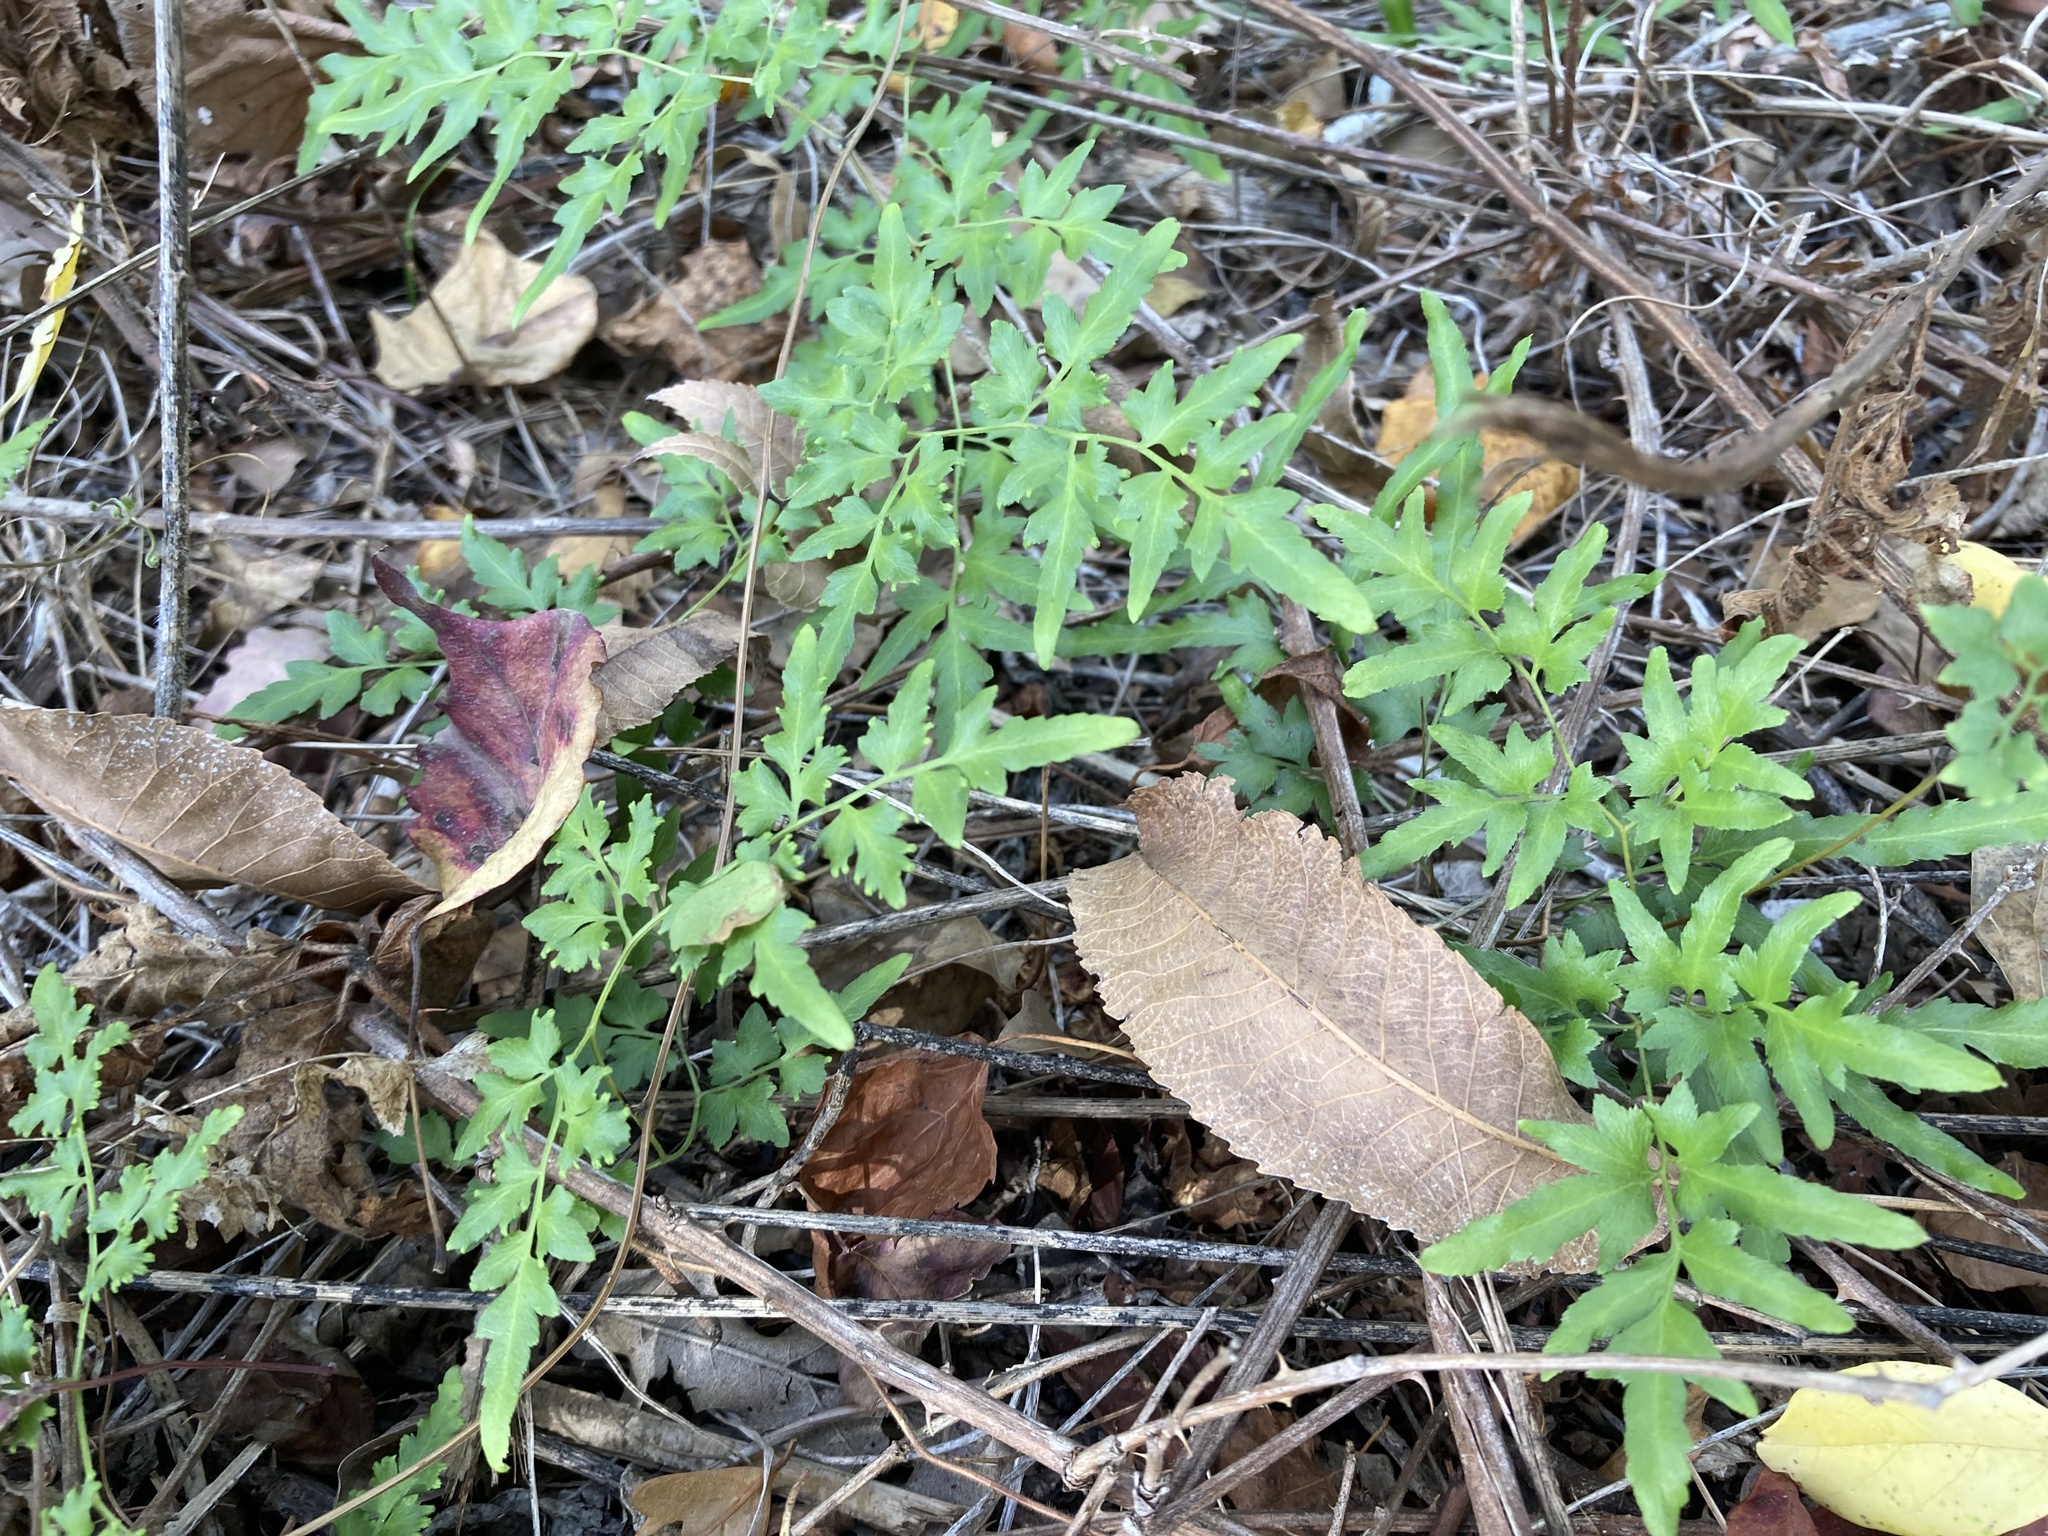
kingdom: Plantae
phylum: Tracheophyta
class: Polypodiopsida
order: Schizaeales
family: Lygodiaceae
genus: Lygodium
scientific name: Lygodium japonicum
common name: Japanese climbing fern
